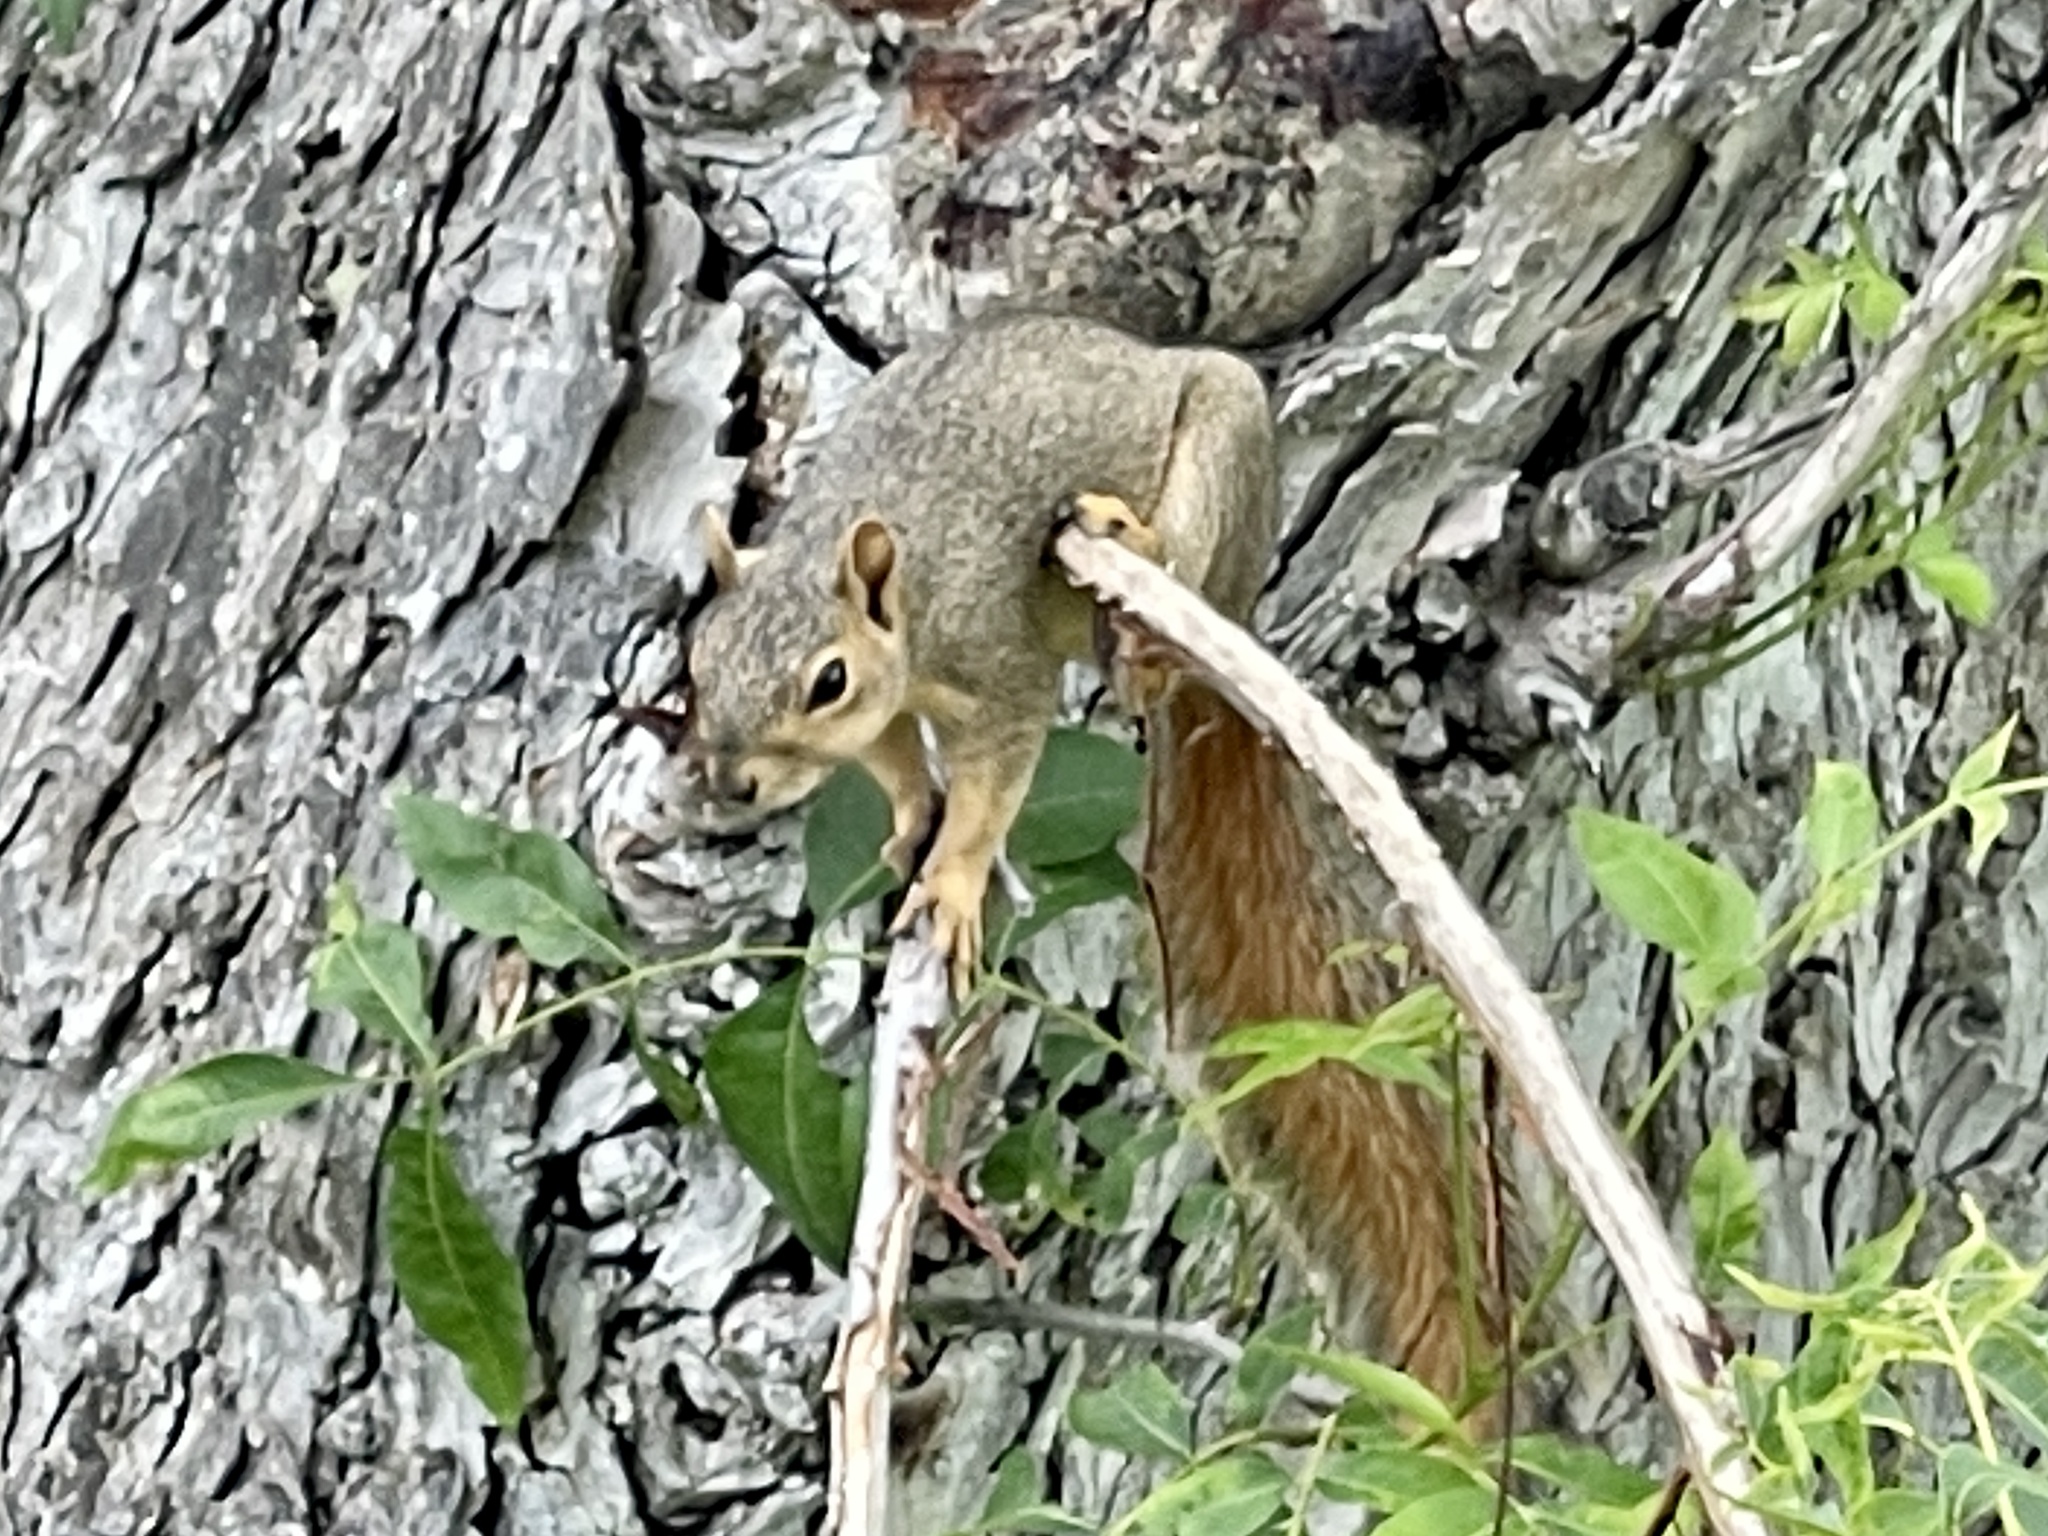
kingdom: Animalia
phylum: Chordata
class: Mammalia
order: Rodentia
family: Sciuridae
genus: Sciurus
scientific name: Sciurus niger
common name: Fox squirrel
